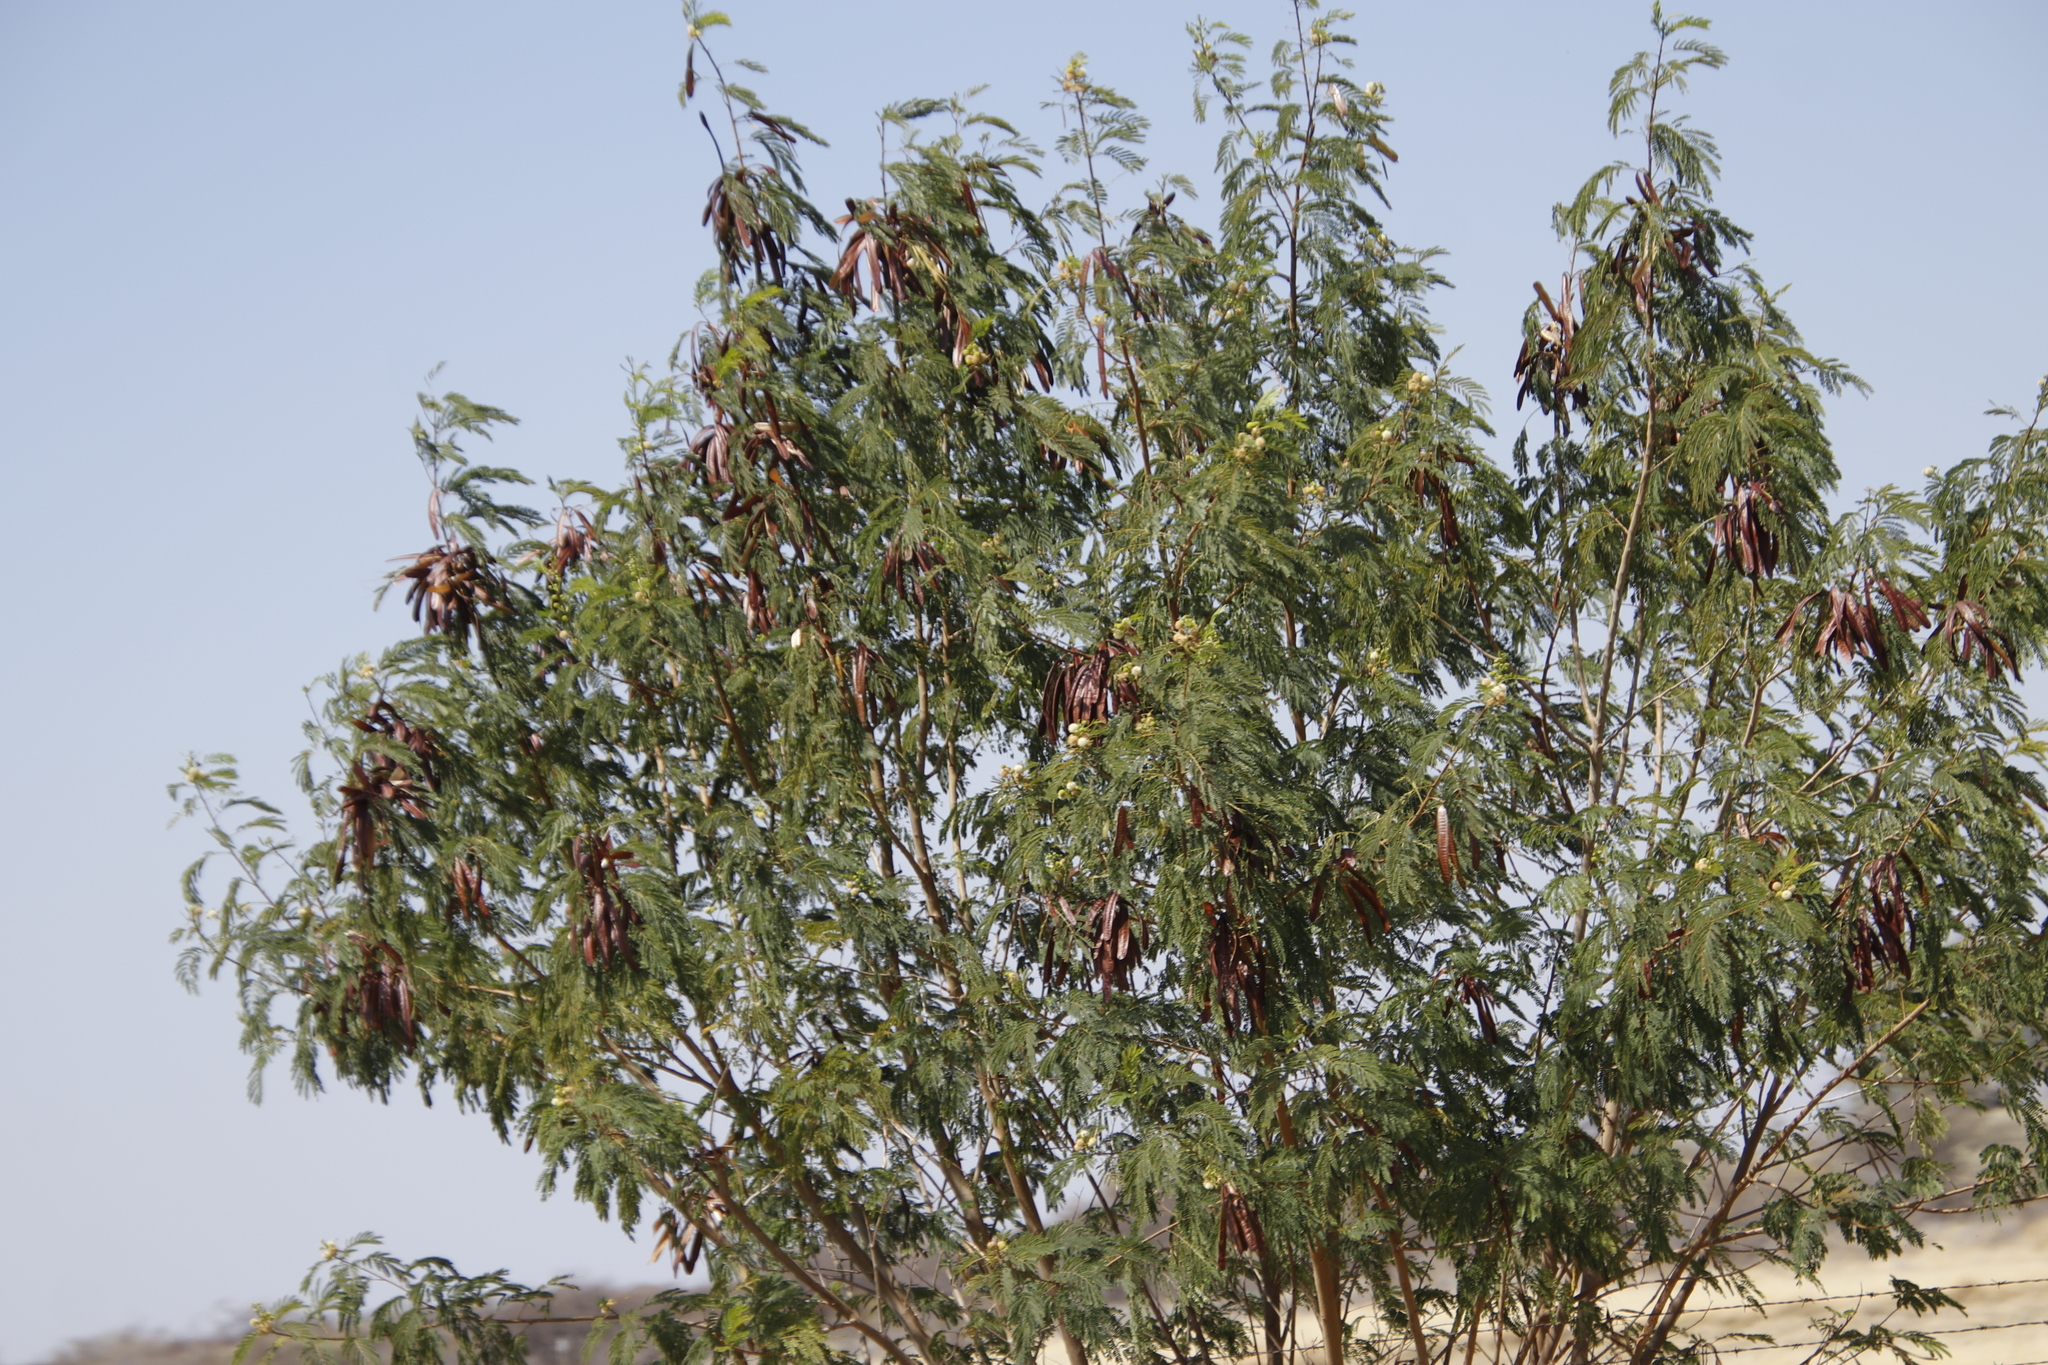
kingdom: Plantae
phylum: Tracheophyta
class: Magnoliopsida
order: Fabales
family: Fabaceae
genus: Leucaena
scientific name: Leucaena leucocephala
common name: White leadtree
